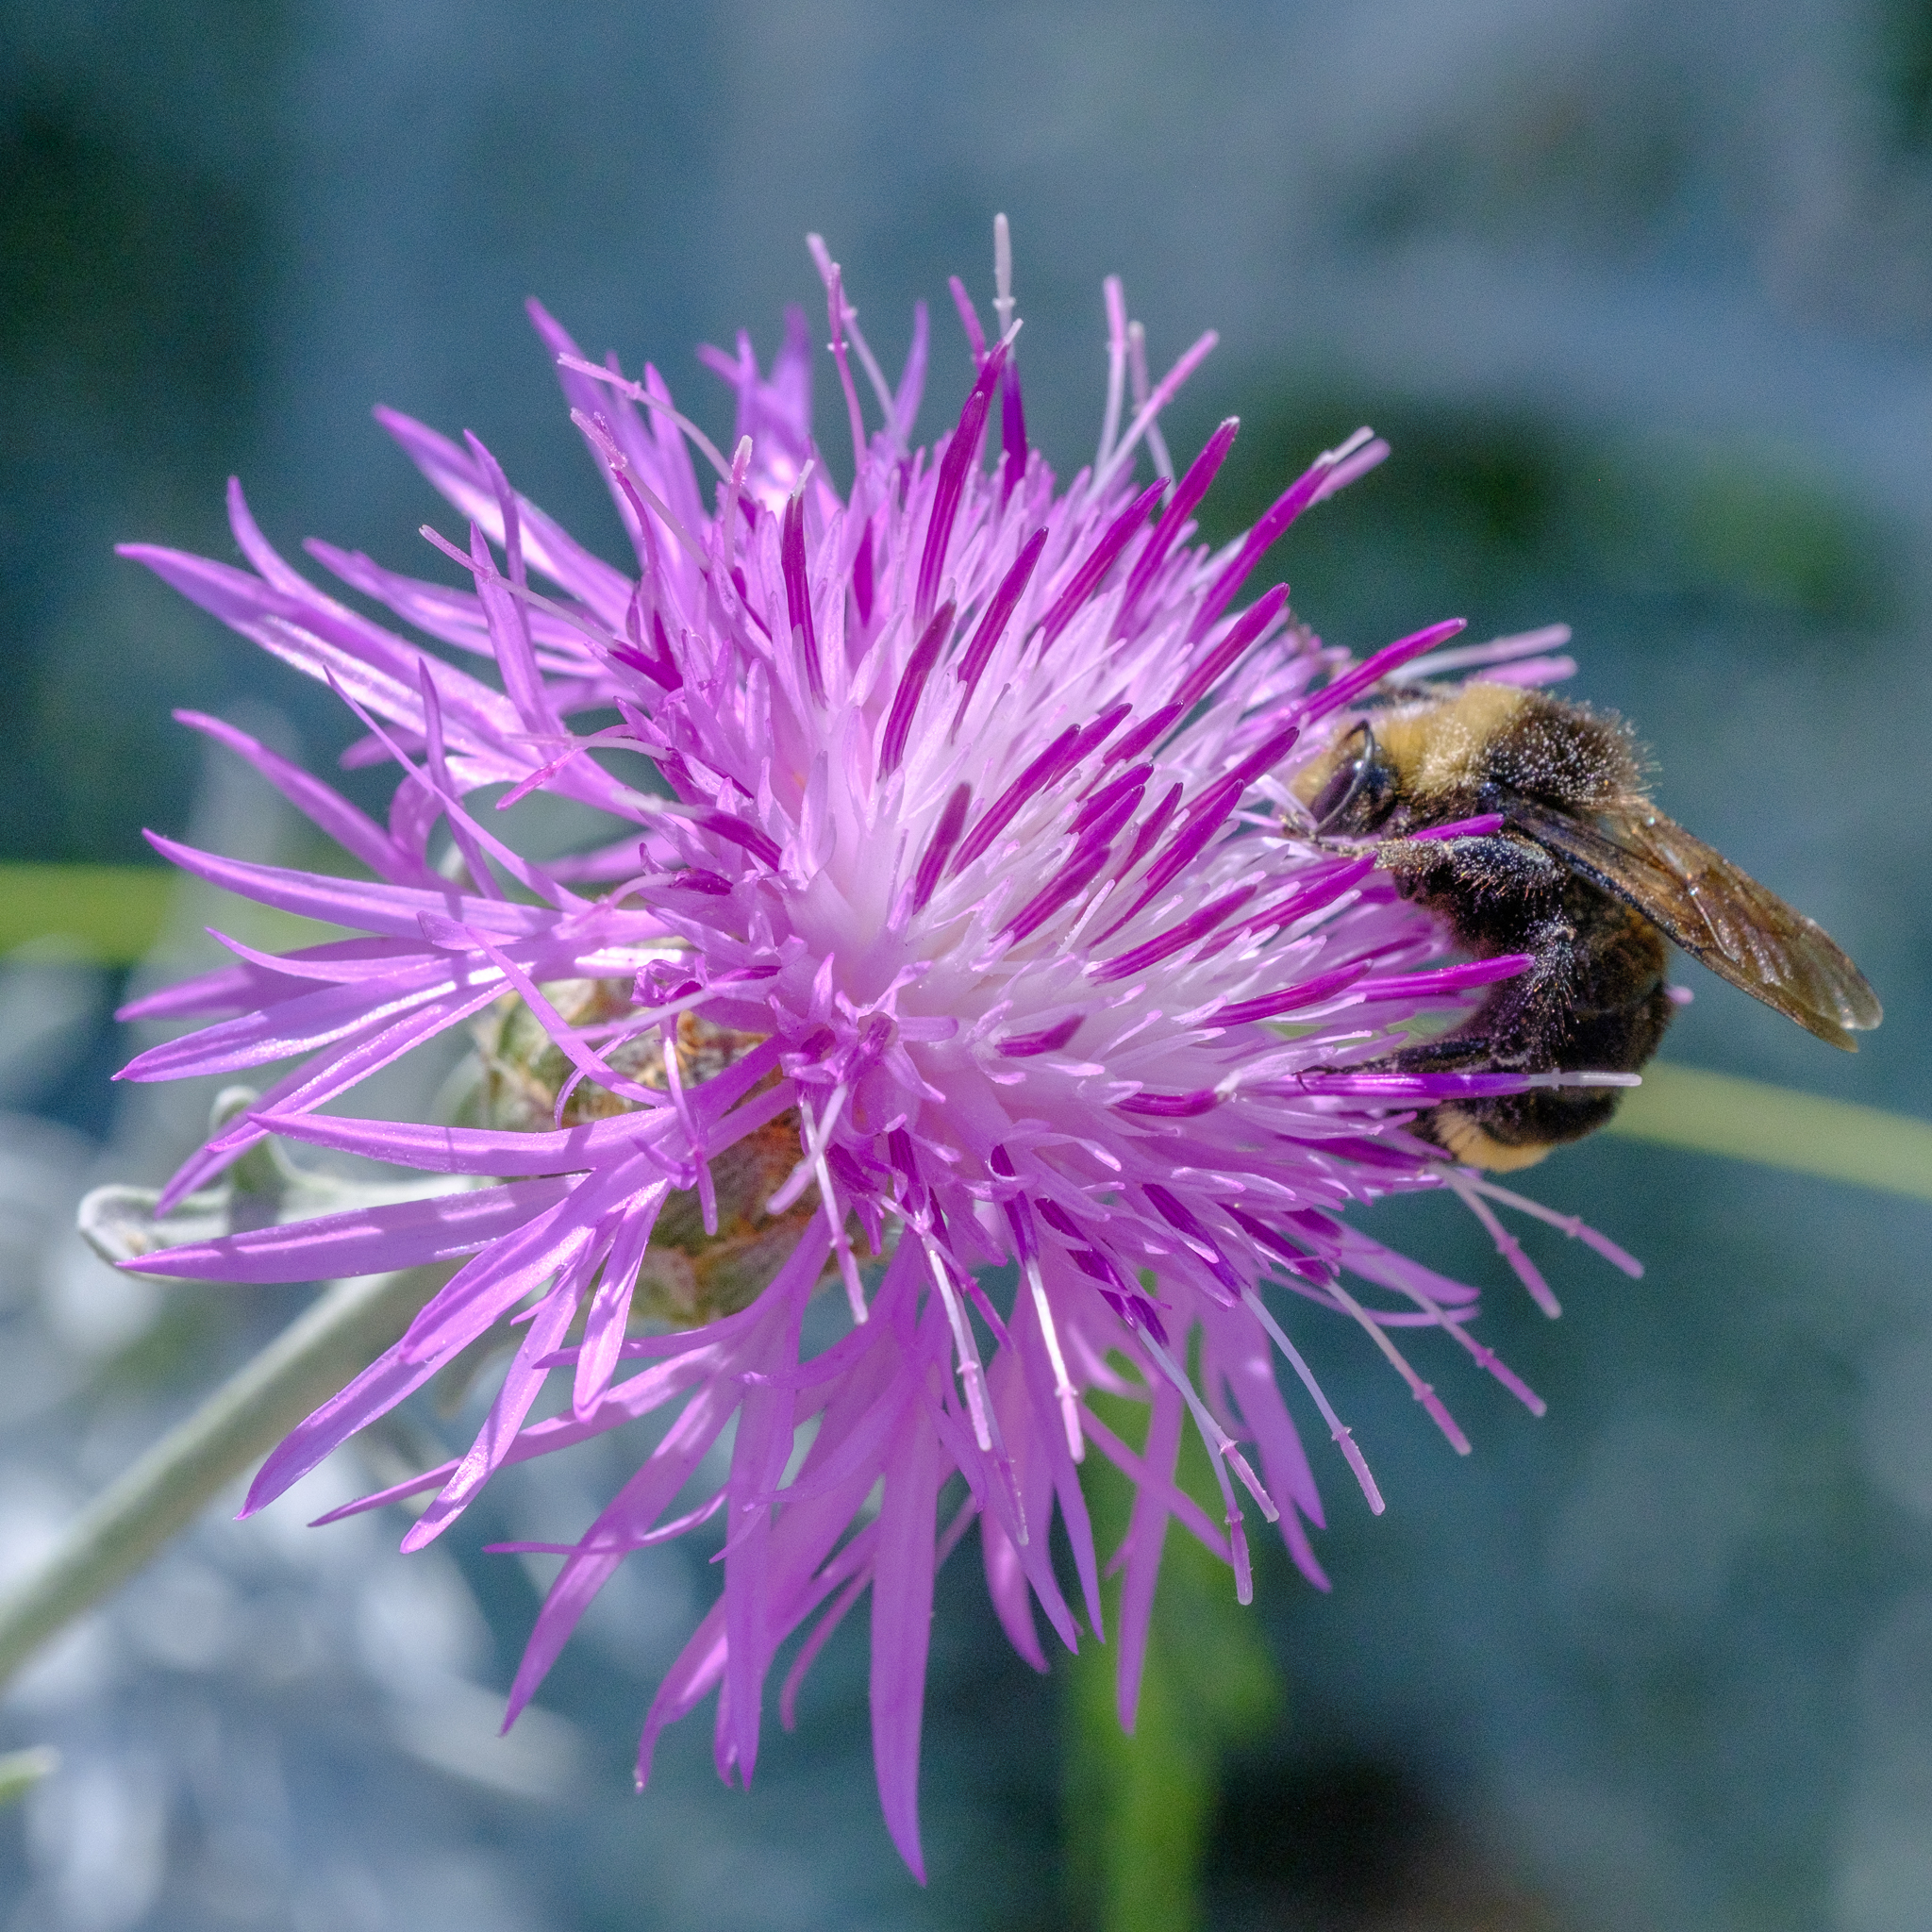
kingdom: Animalia
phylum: Arthropoda
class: Insecta
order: Hymenoptera
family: Apidae
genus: Bombus
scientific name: Bombus vosnesenskii
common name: Vosnesensky bumble bee
